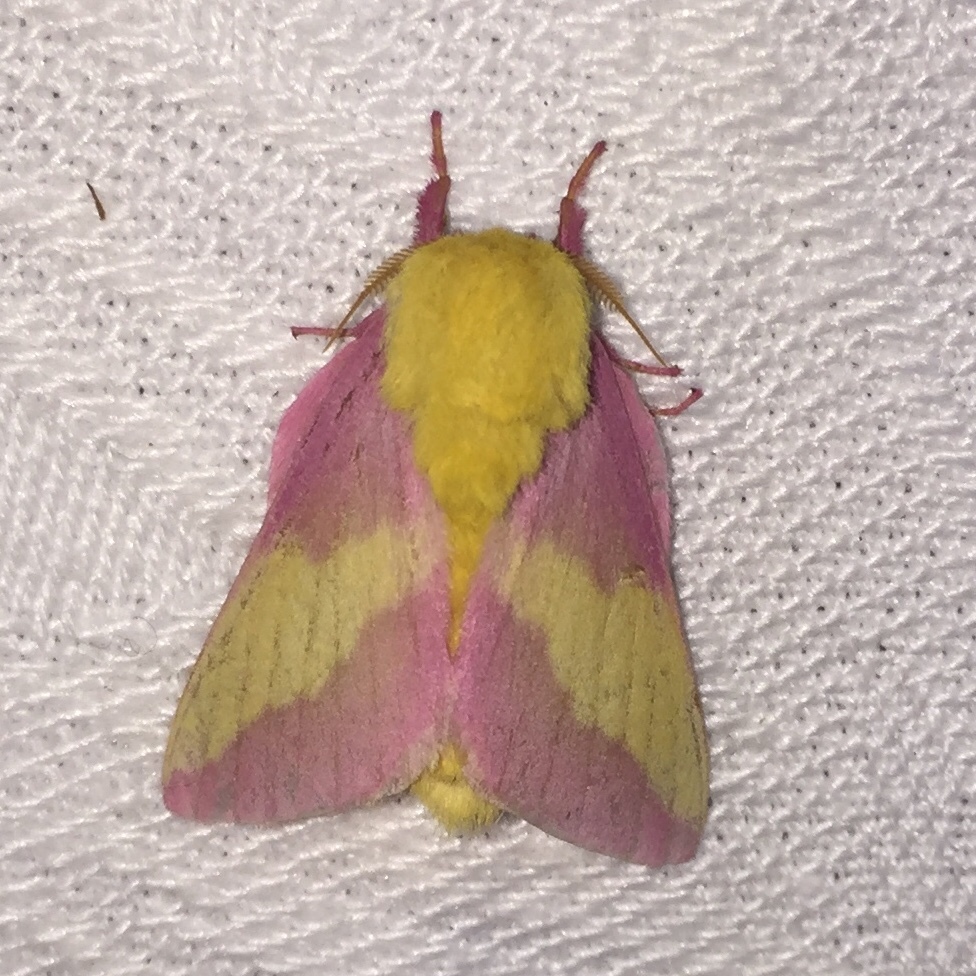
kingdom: Animalia
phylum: Arthropoda
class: Insecta
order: Lepidoptera
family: Saturniidae
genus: Dryocampa
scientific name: Dryocampa rubicunda
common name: Rosy maple moth
